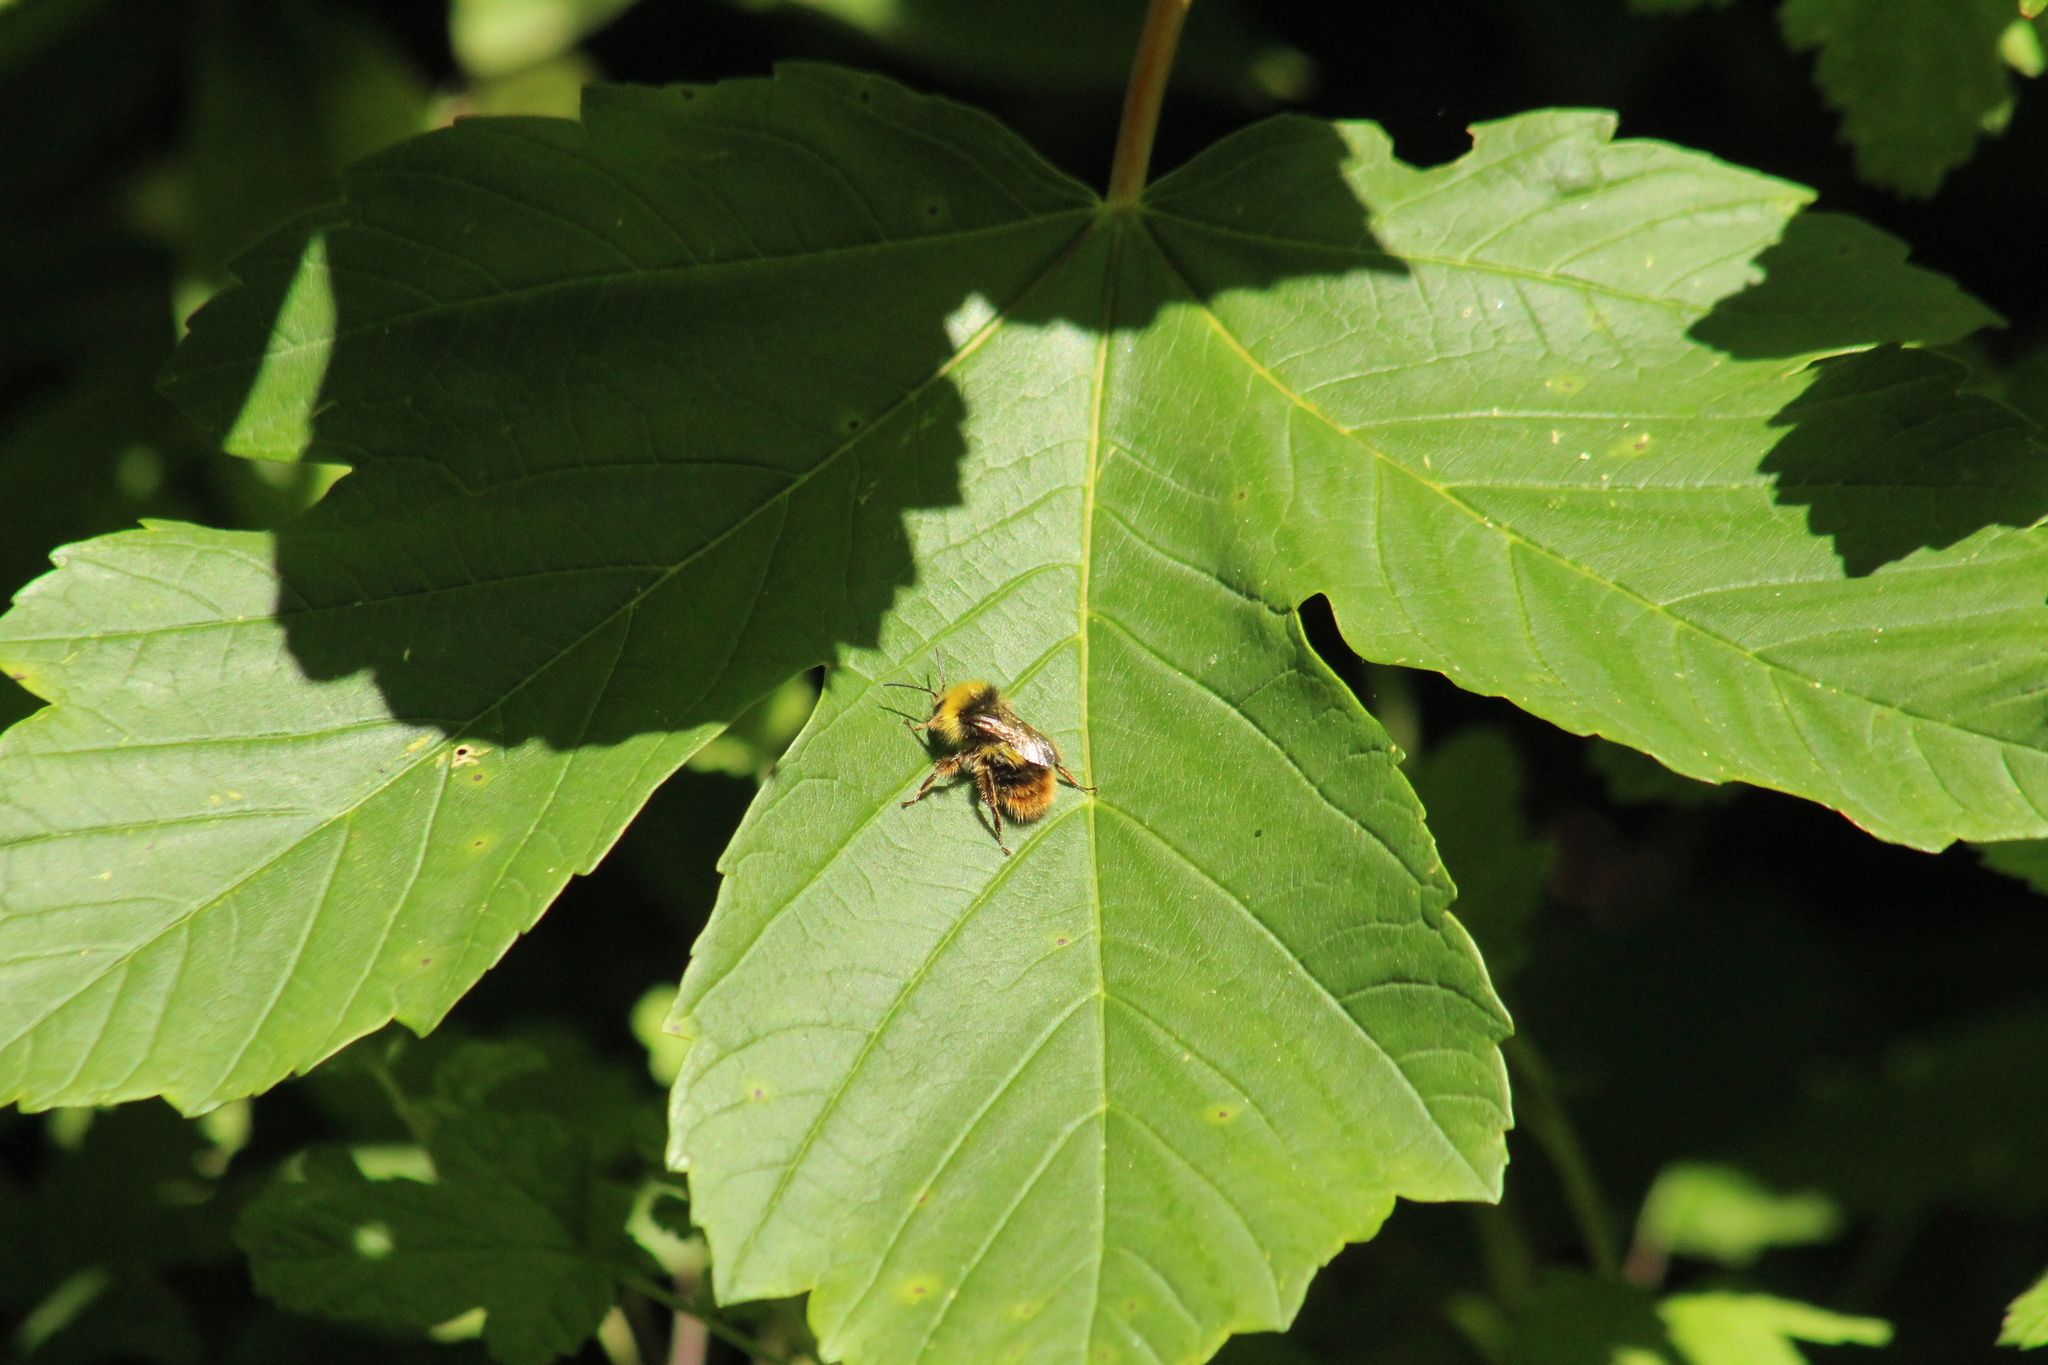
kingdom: Animalia
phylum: Arthropoda
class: Insecta
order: Hymenoptera
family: Apidae
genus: Bombus
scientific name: Bombus pratorum
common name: Early humble-bee
